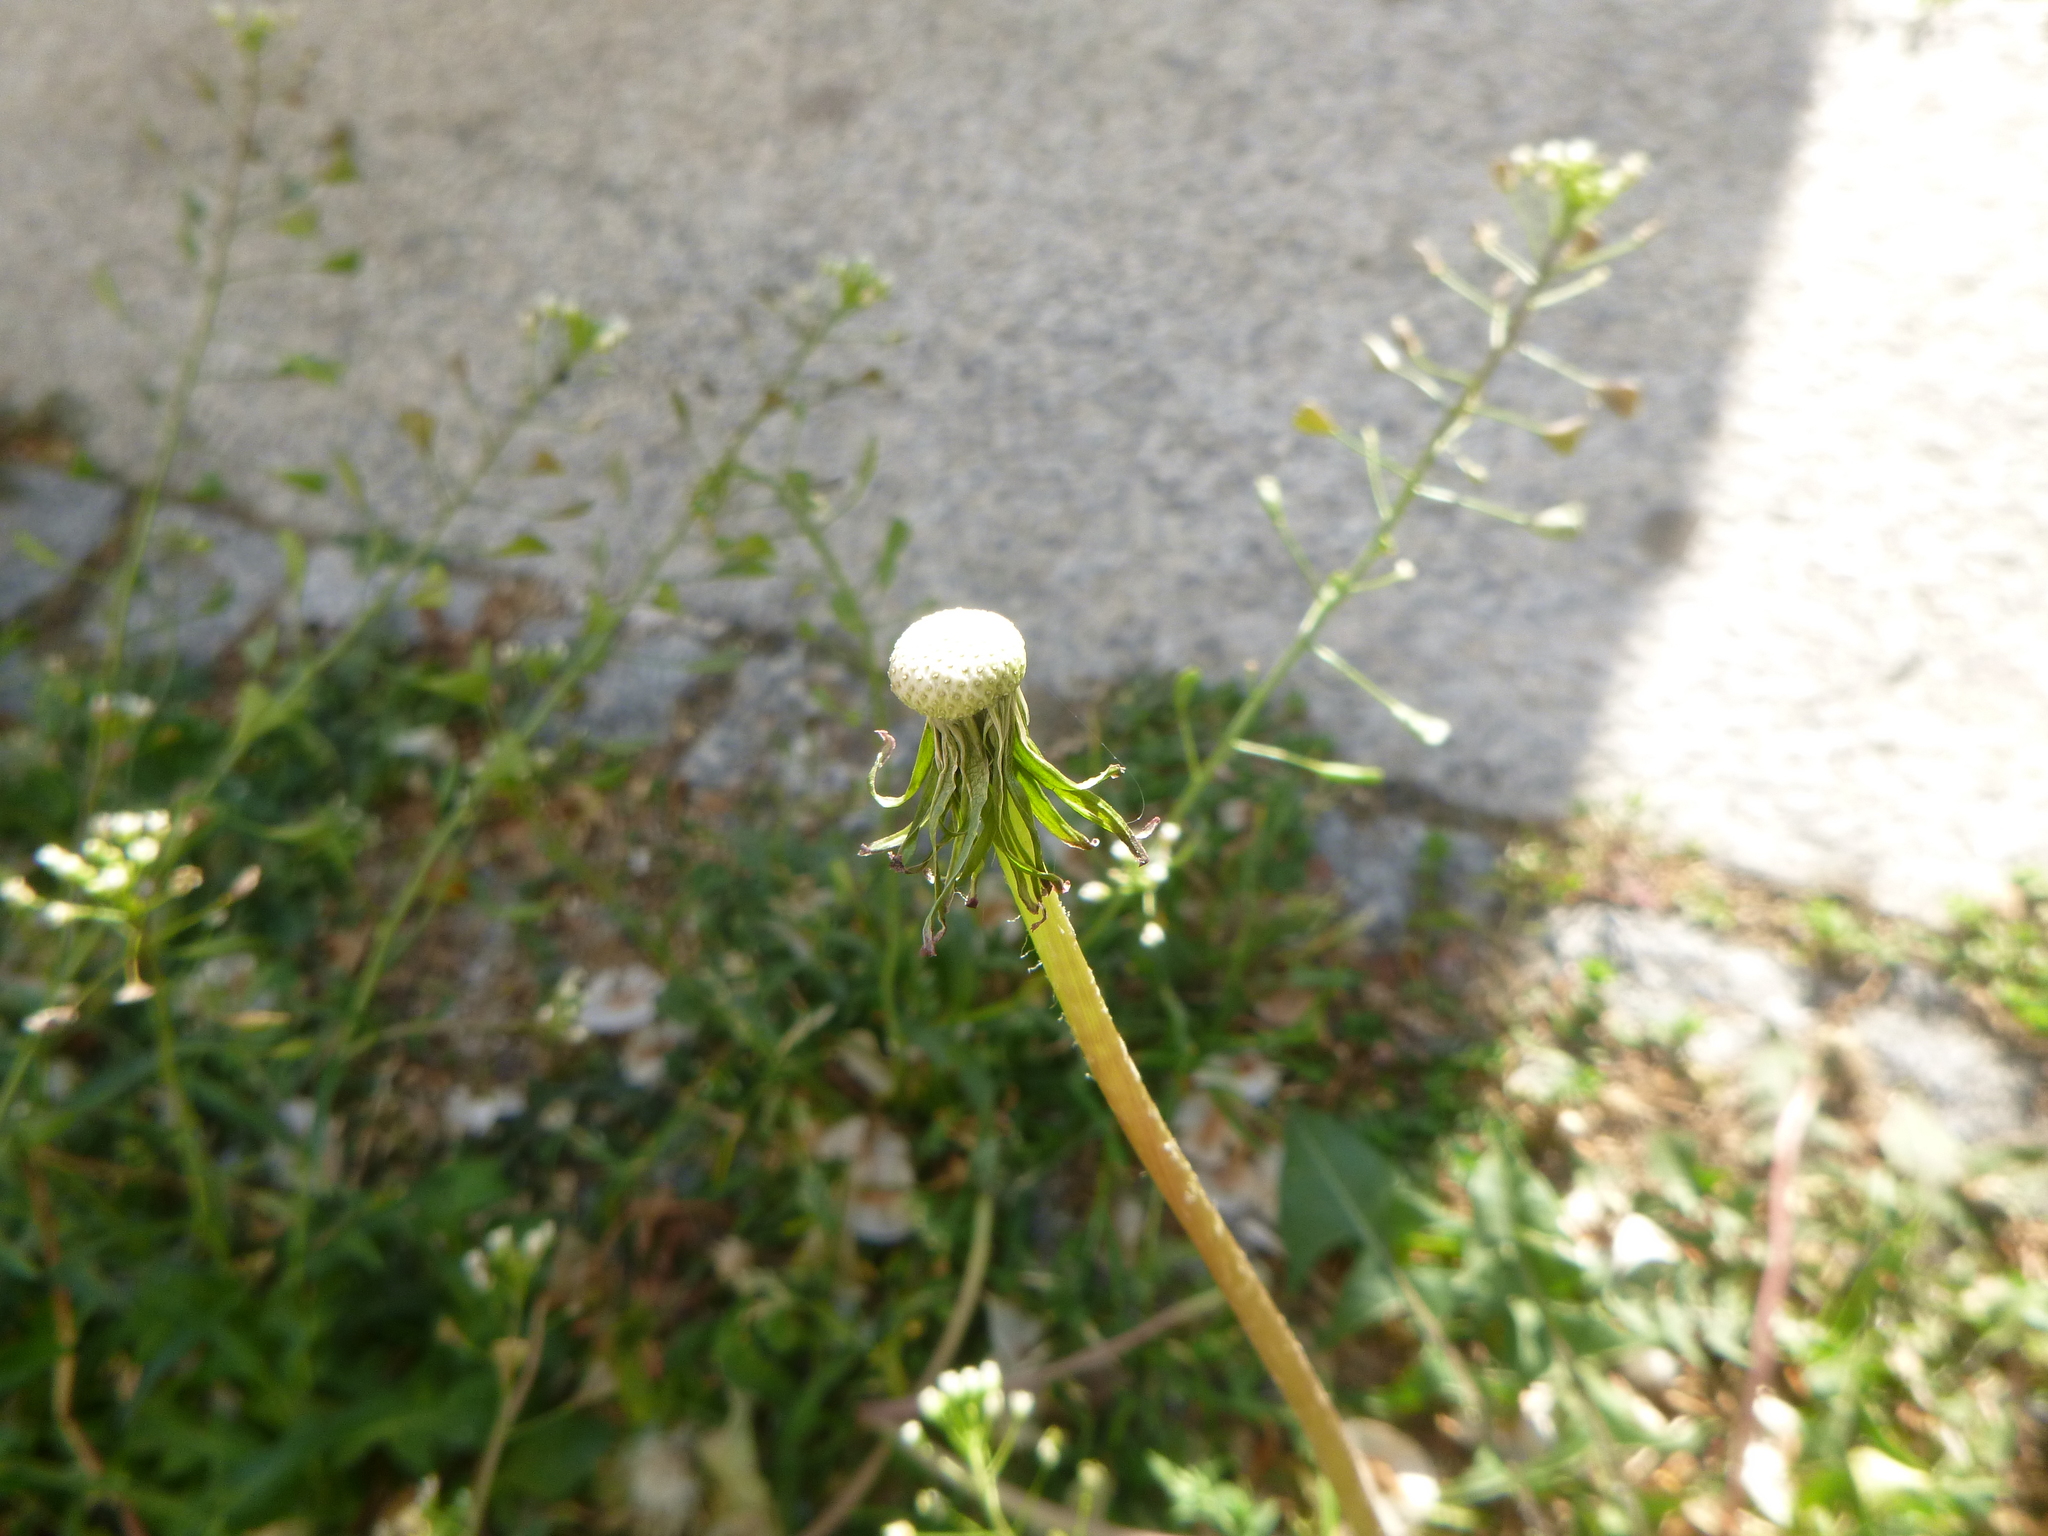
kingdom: Plantae
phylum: Tracheophyta
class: Magnoliopsida
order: Asterales
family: Asteraceae
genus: Taraxacum
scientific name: Taraxacum officinale
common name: Common dandelion
